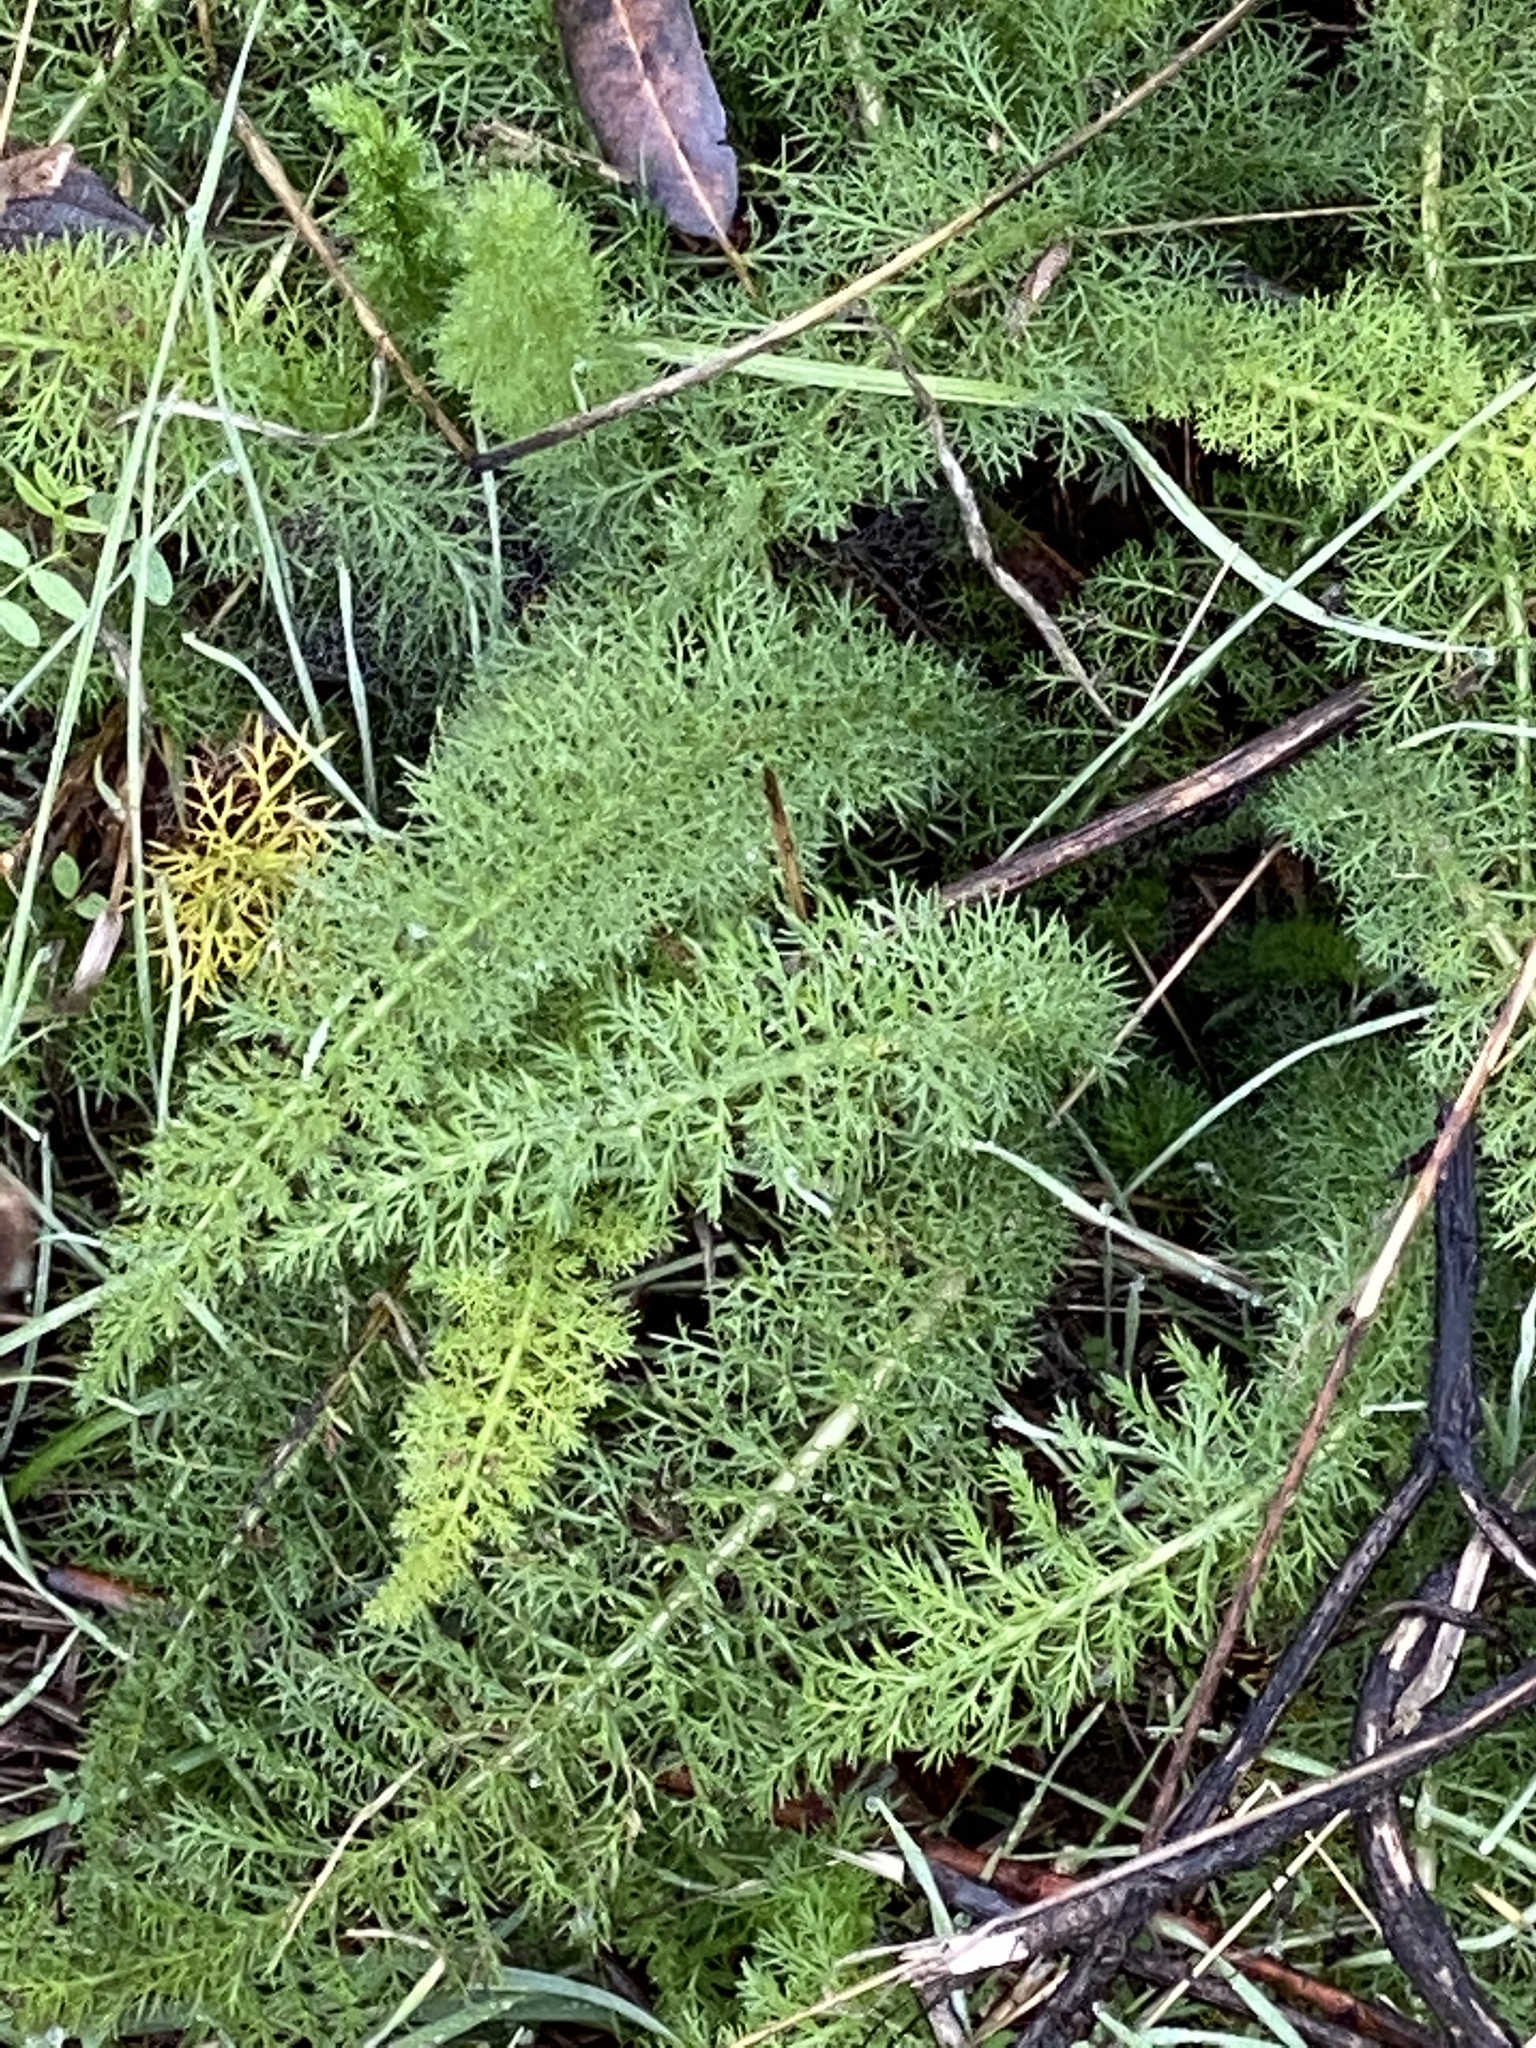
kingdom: Plantae
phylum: Tracheophyta
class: Magnoliopsida
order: Asterales
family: Asteraceae
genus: Achillea
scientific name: Achillea millefolium
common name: Yarrow
